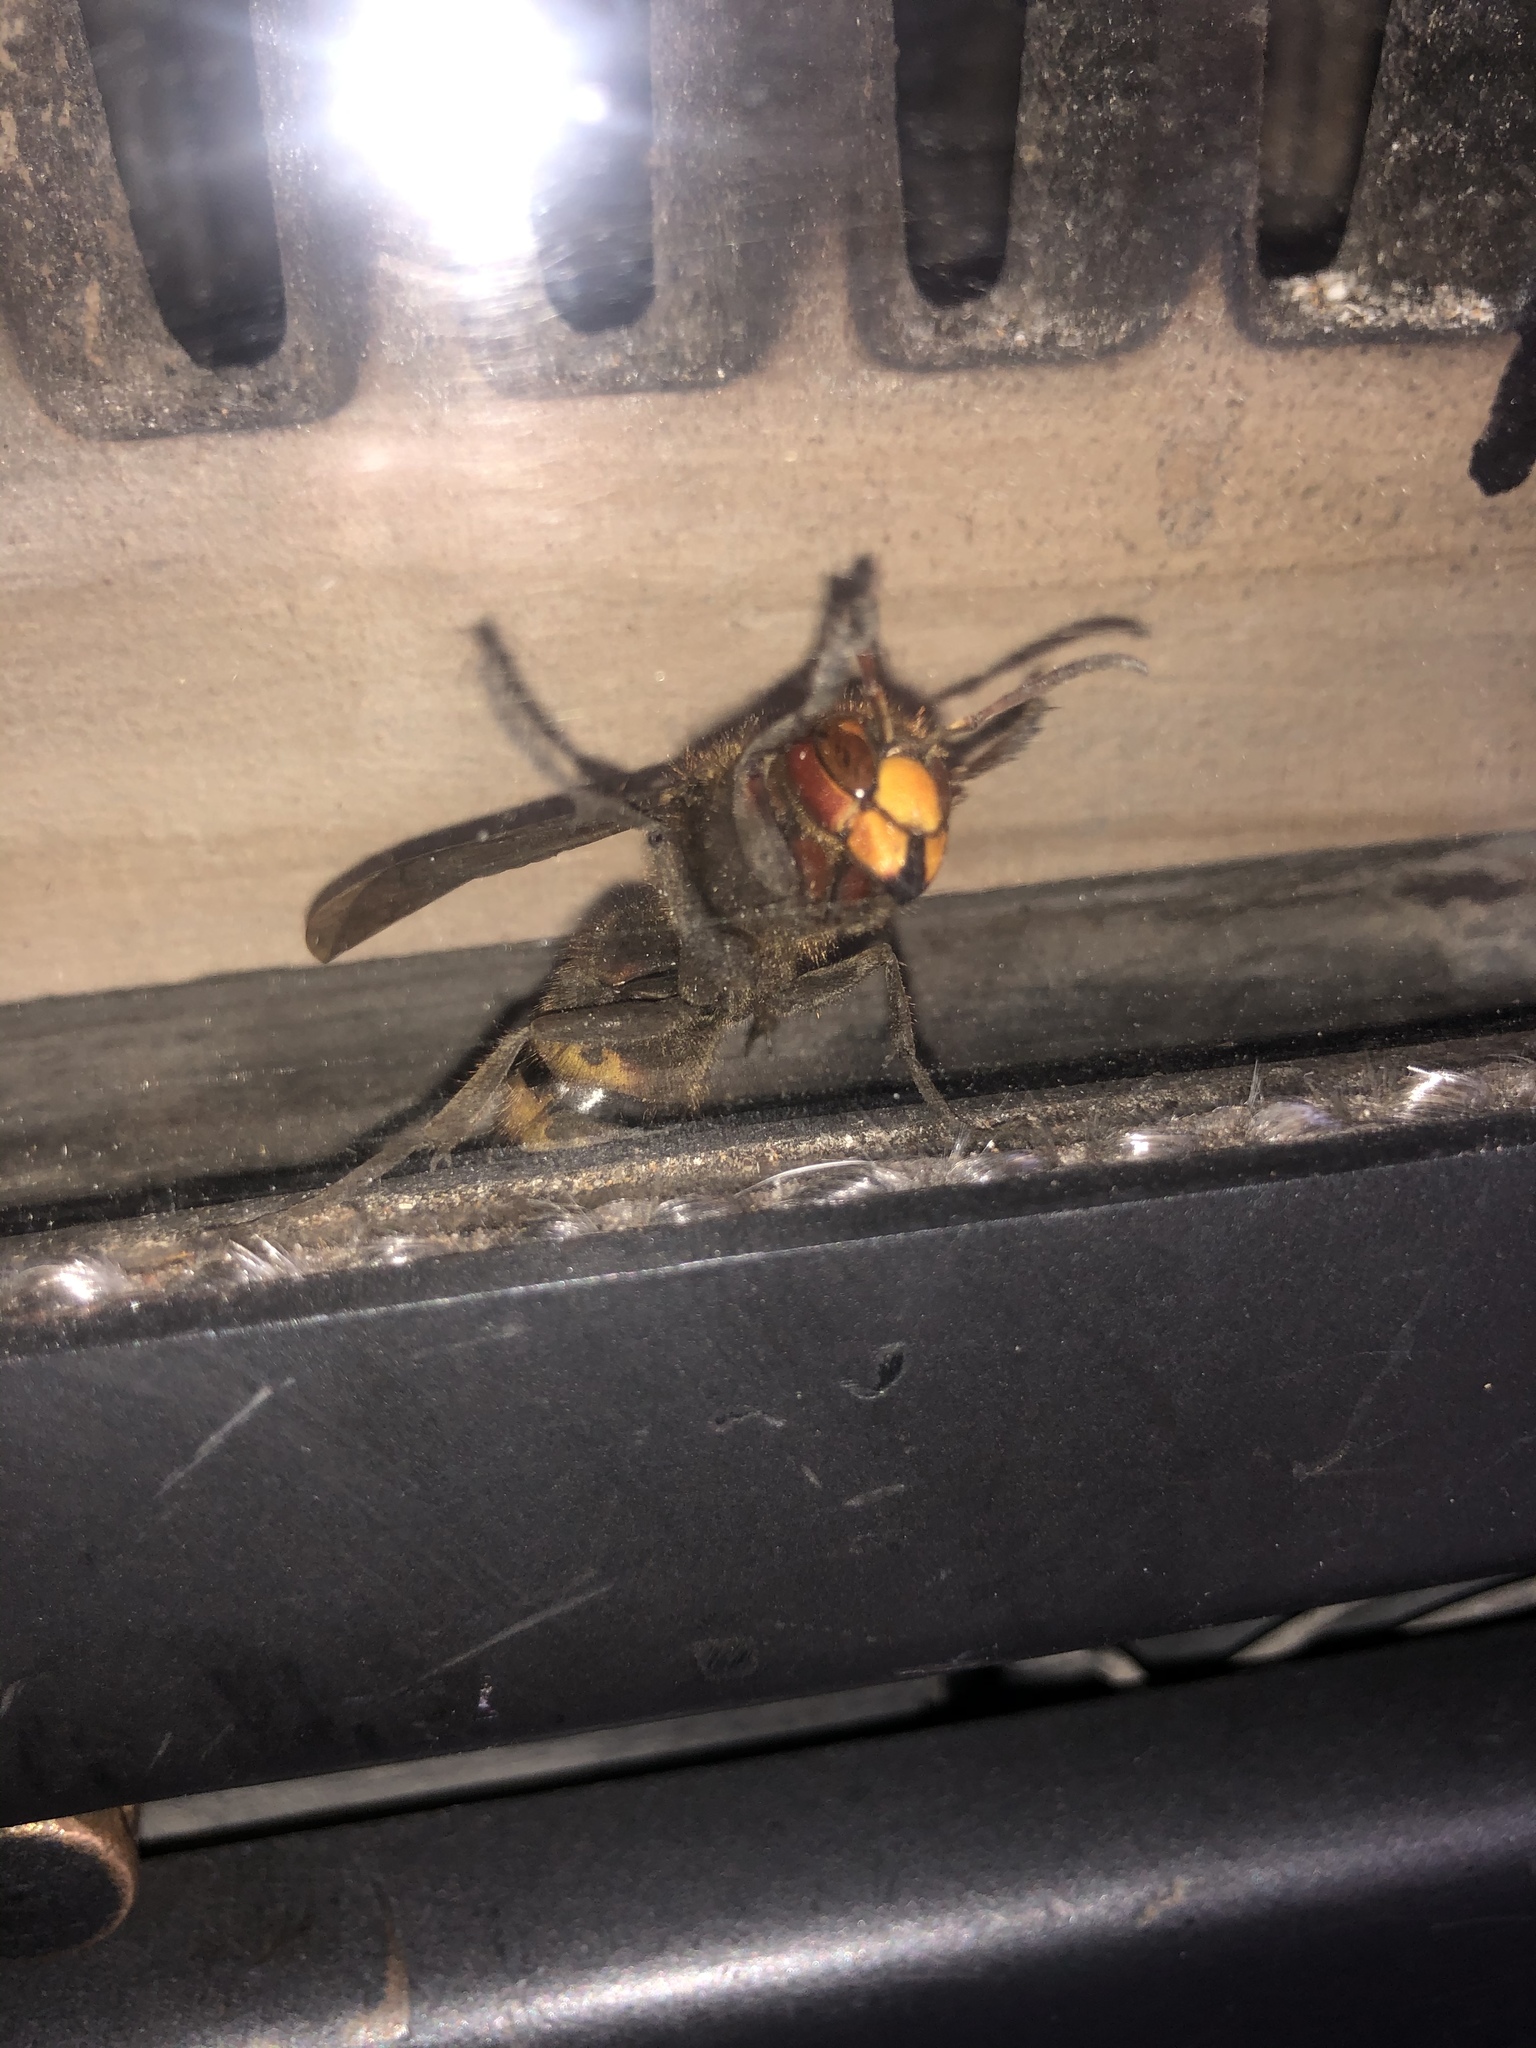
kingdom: Animalia
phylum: Arthropoda
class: Insecta
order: Hymenoptera
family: Vespidae
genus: Vespa
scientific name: Vespa crabro
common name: Hornet
